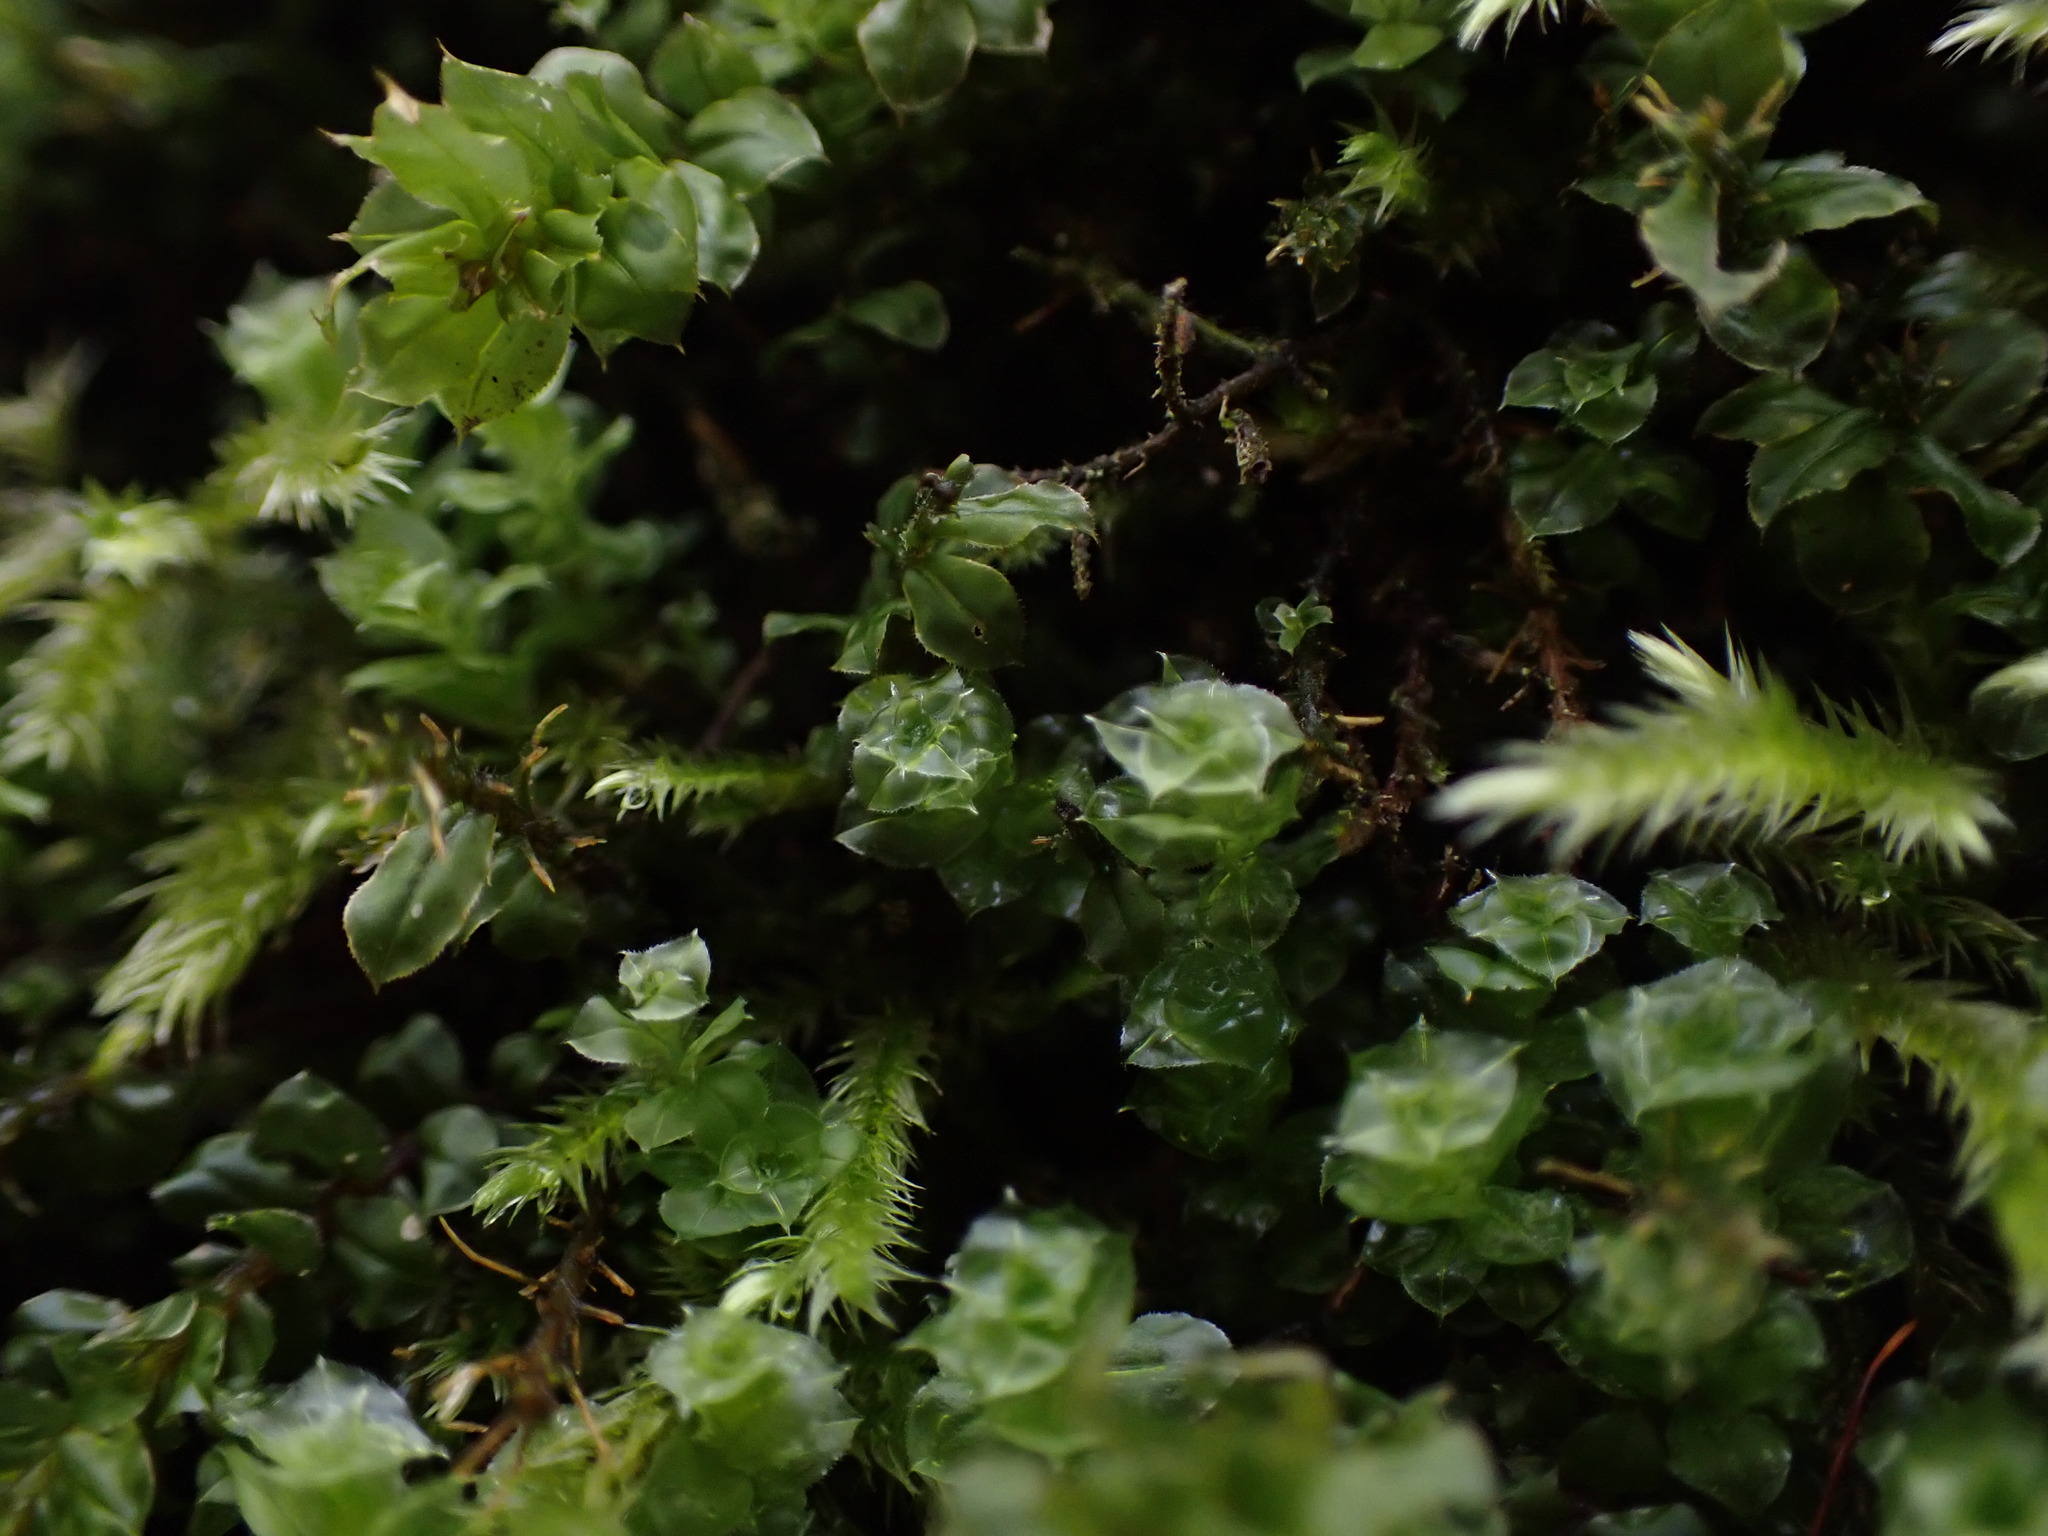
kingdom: Plantae
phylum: Bryophyta
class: Bryopsida
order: Bryales
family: Mniaceae
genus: Plagiomnium
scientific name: Plagiomnium venustum
